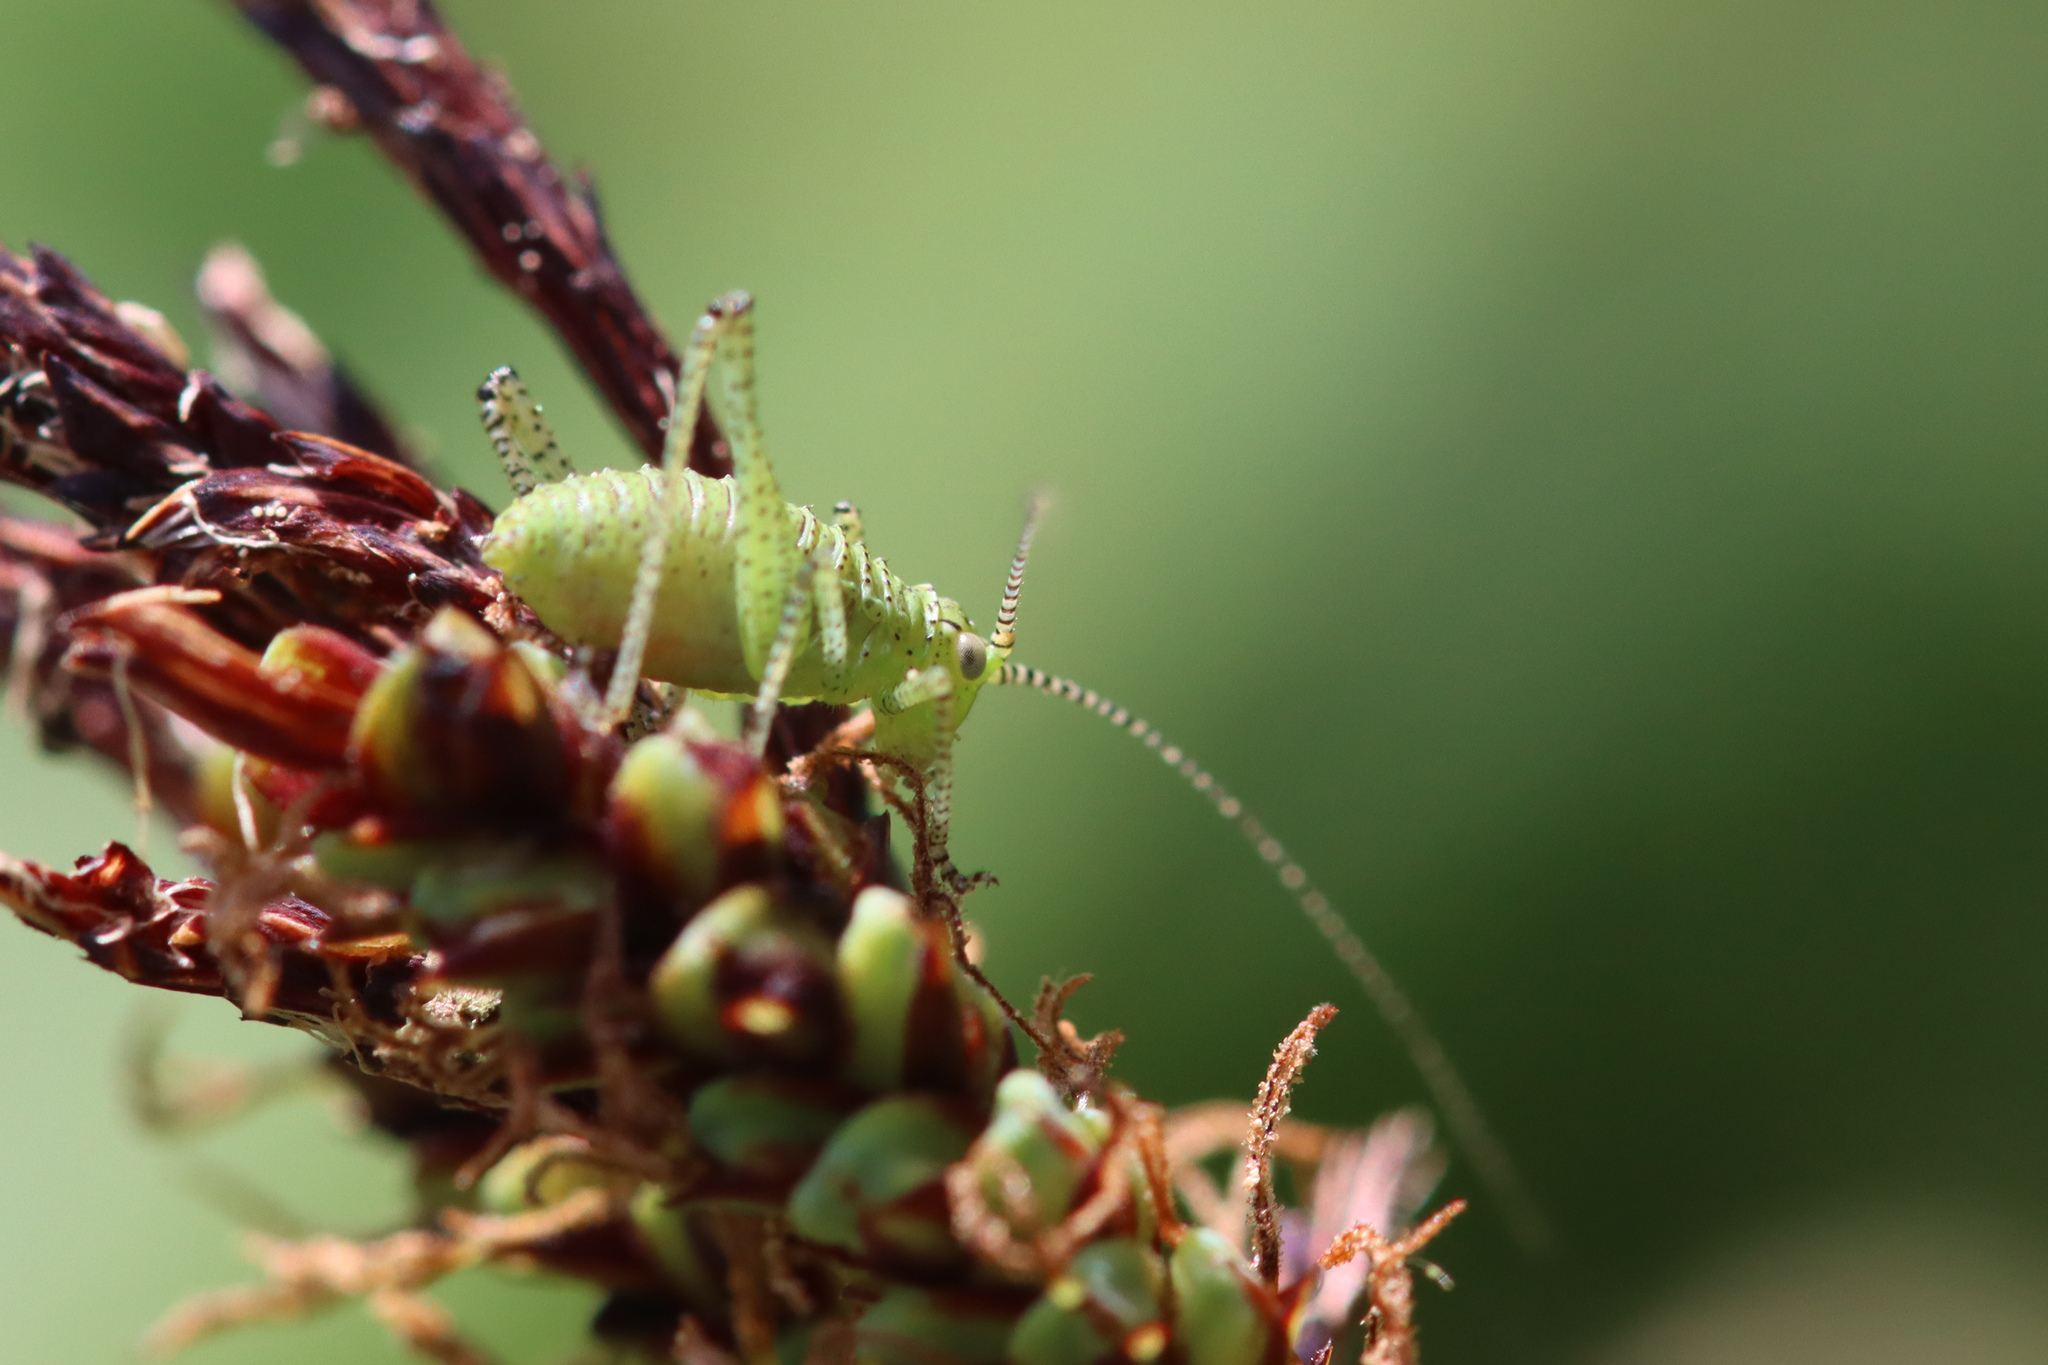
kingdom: Animalia
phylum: Arthropoda
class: Insecta
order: Orthoptera
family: Tettigoniidae
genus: Leptophyes
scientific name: Leptophyes punctatissima
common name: Speckled bush-cricket
